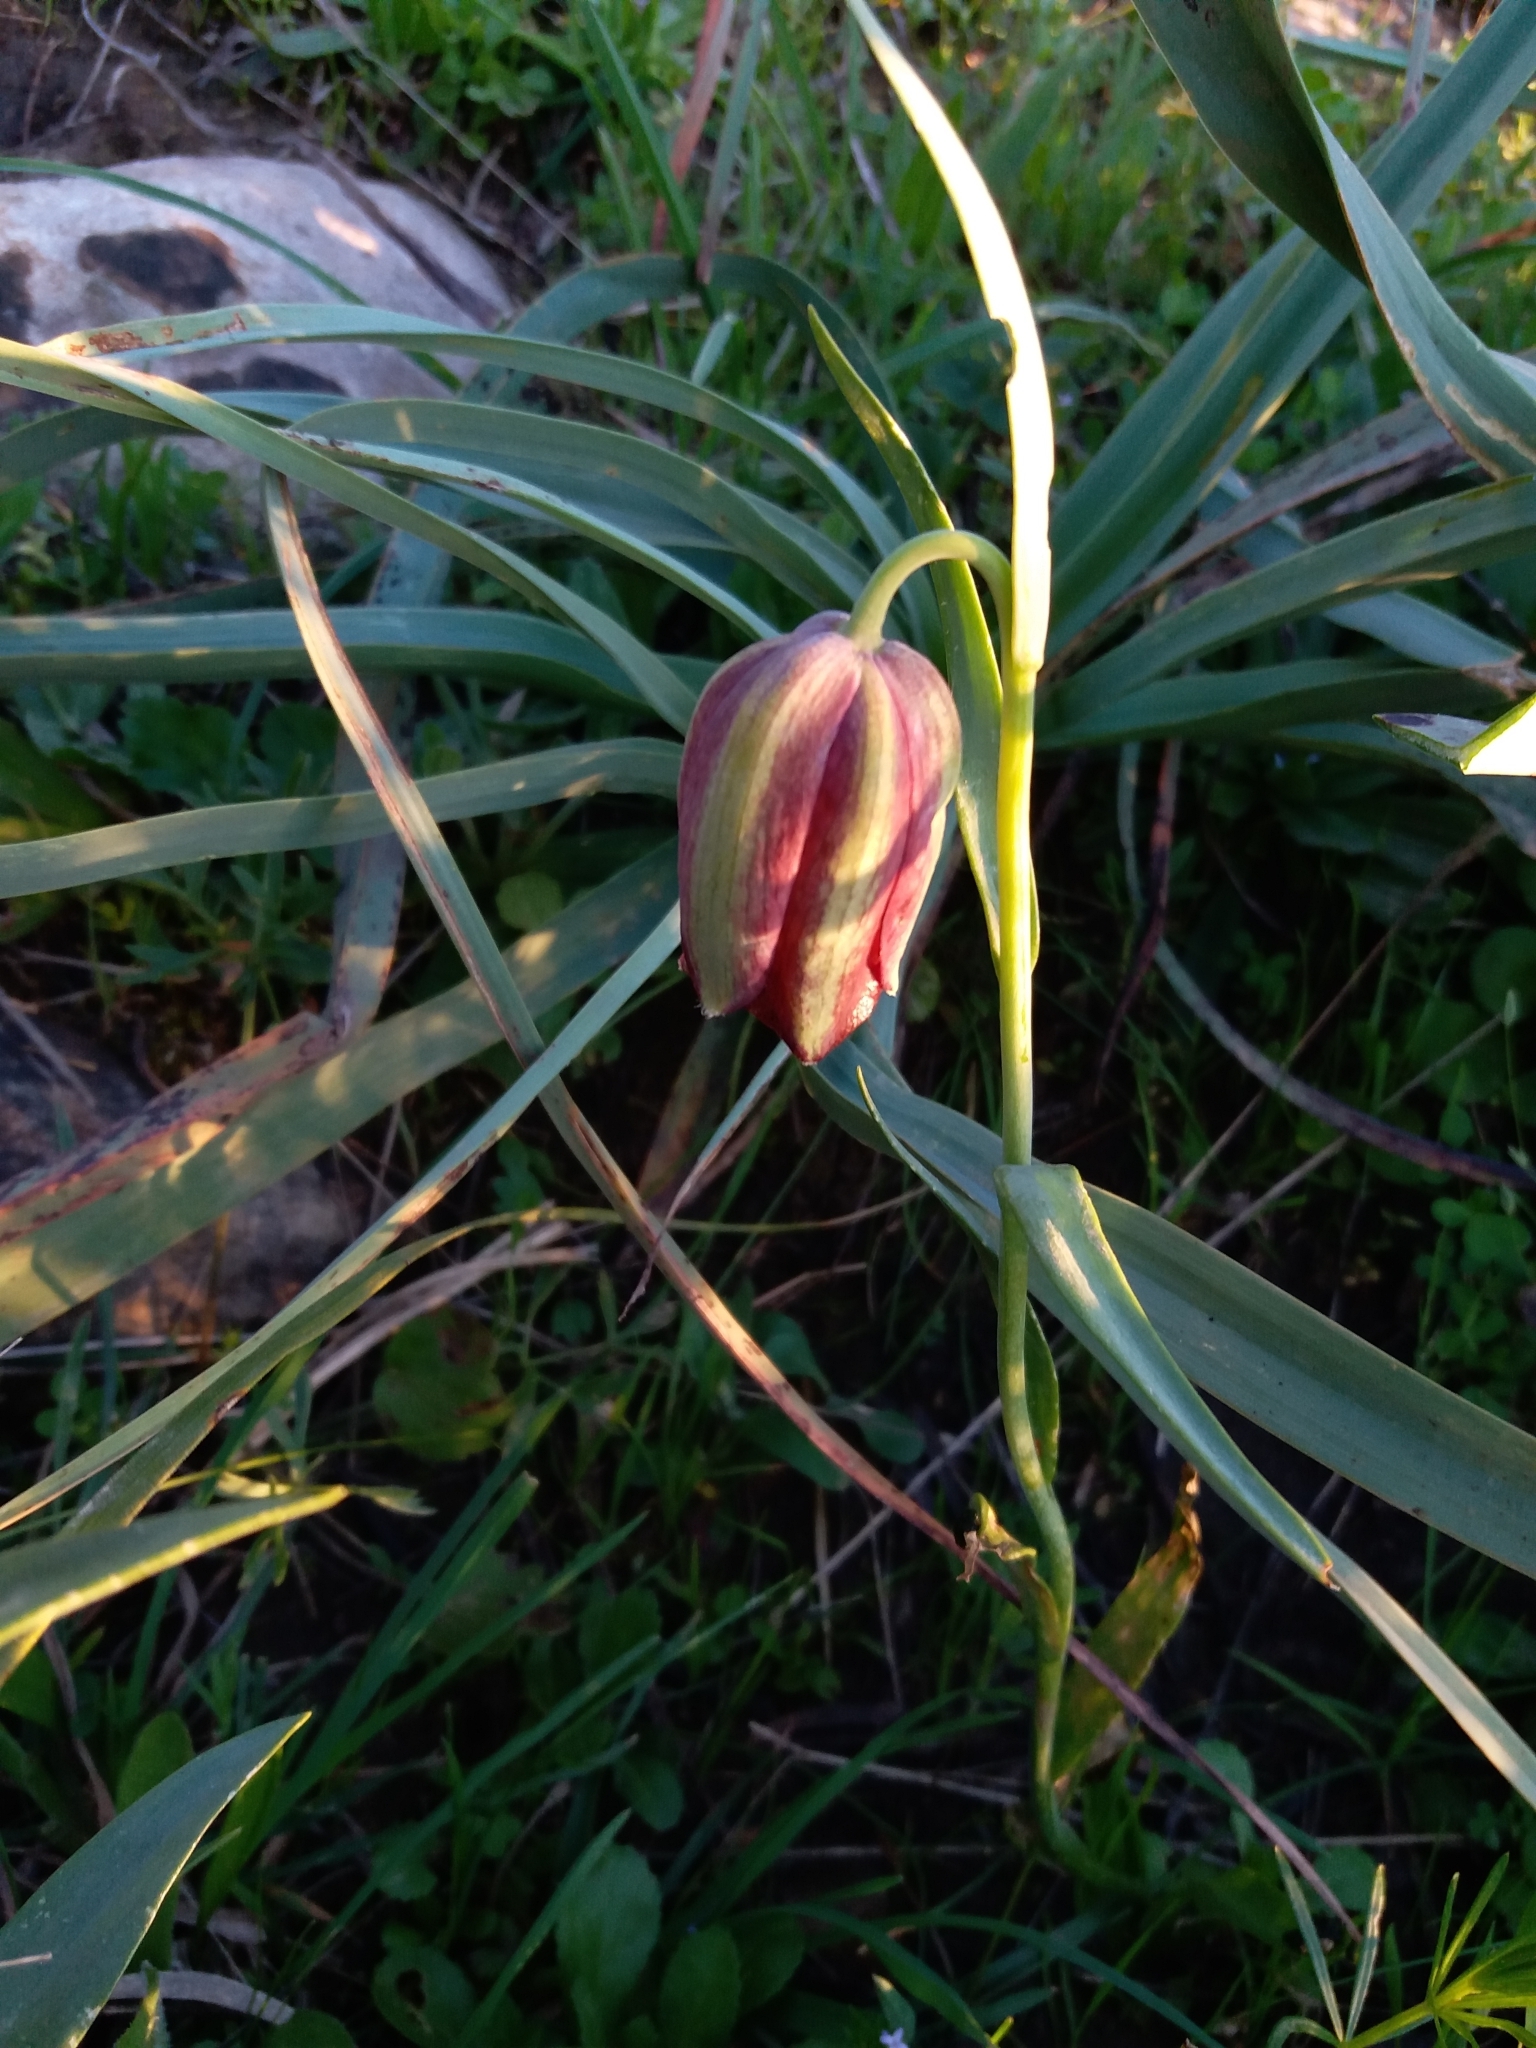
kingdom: Plantae
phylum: Tracheophyta
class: Liliopsida
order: Liliales
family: Liliaceae
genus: Fritillaria
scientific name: Fritillaria oranensis
